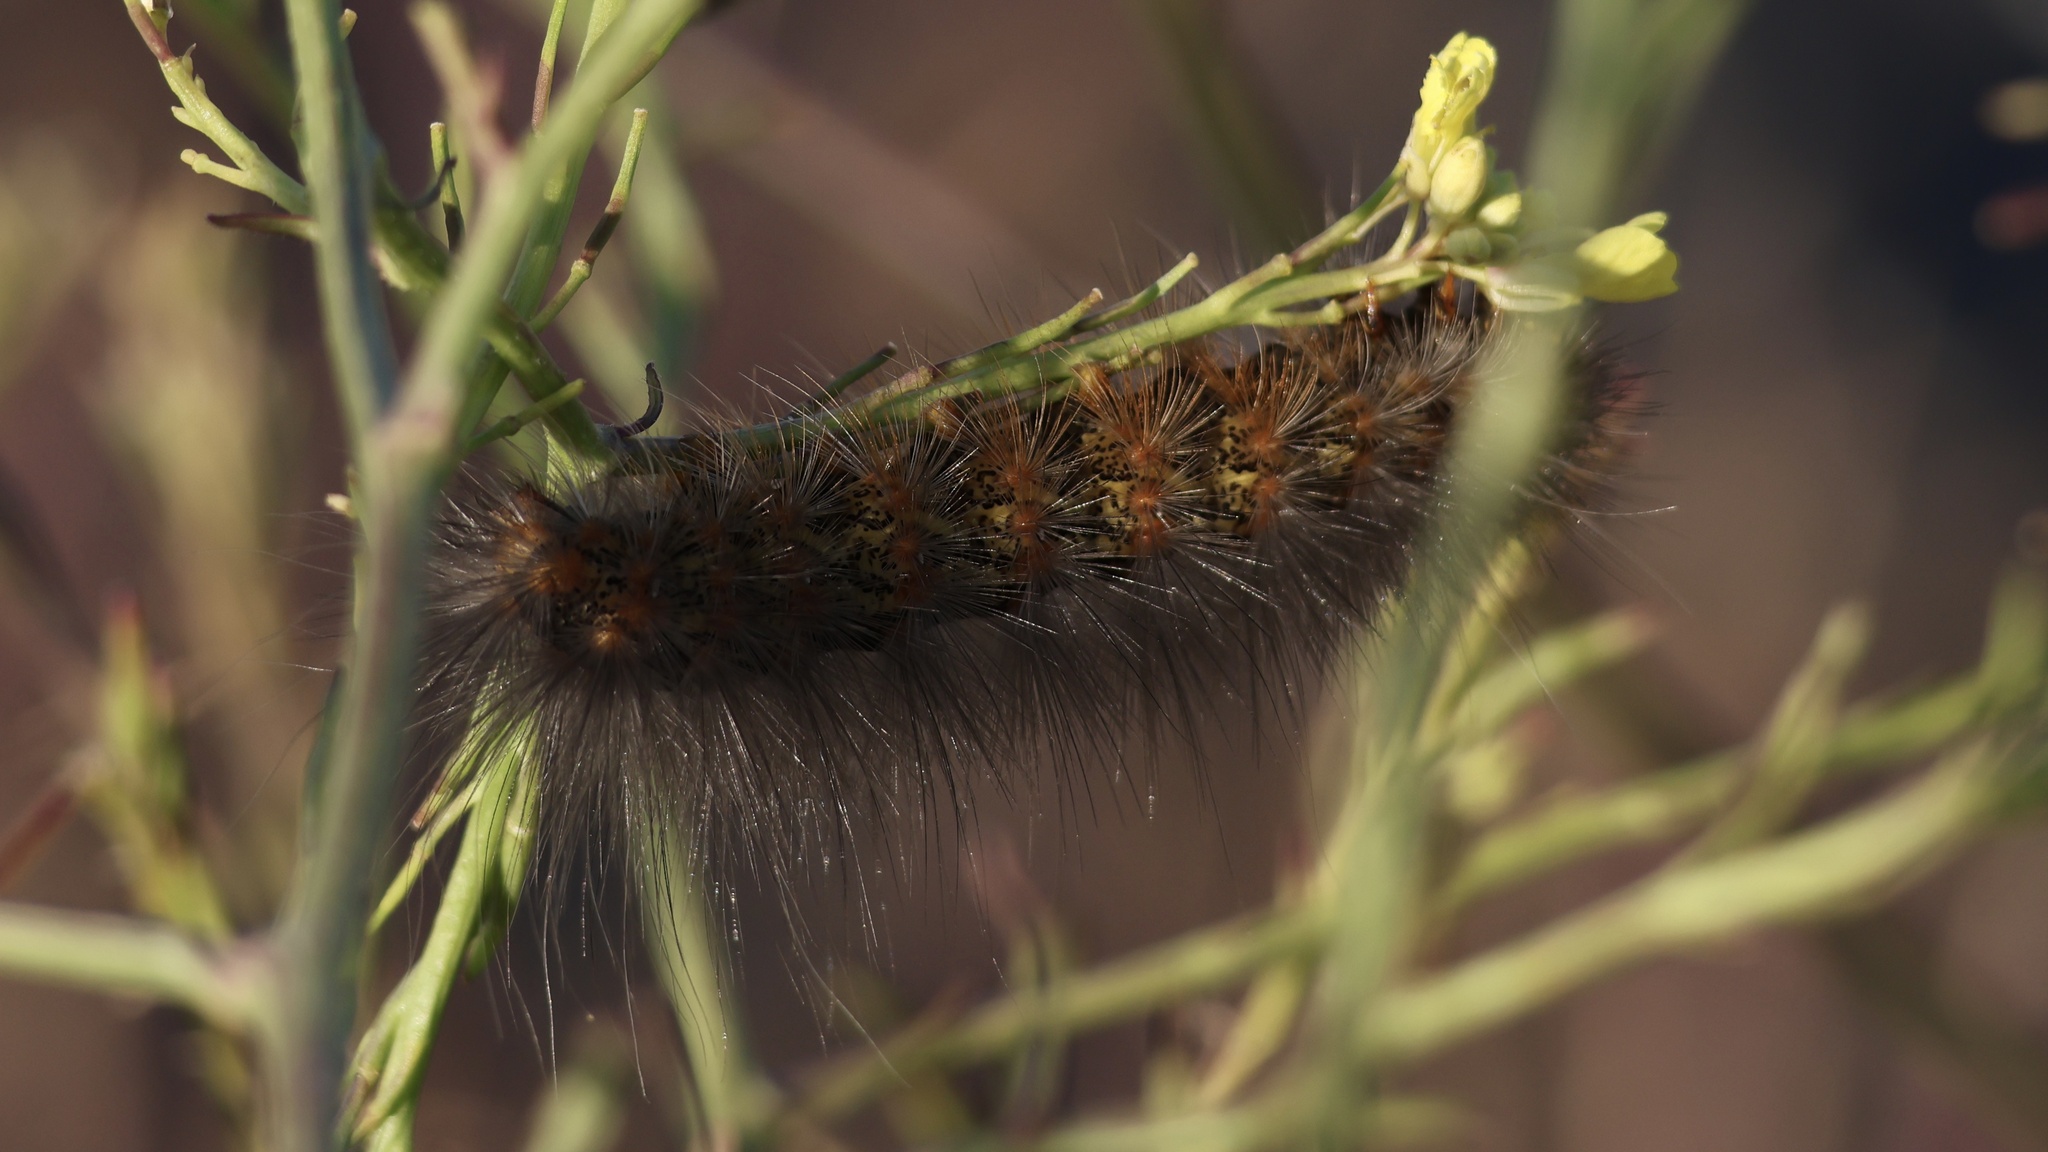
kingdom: Animalia
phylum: Arthropoda
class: Insecta
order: Lepidoptera
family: Erebidae
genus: Estigmene
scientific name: Estigmene acrea
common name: Salt marsh moth
